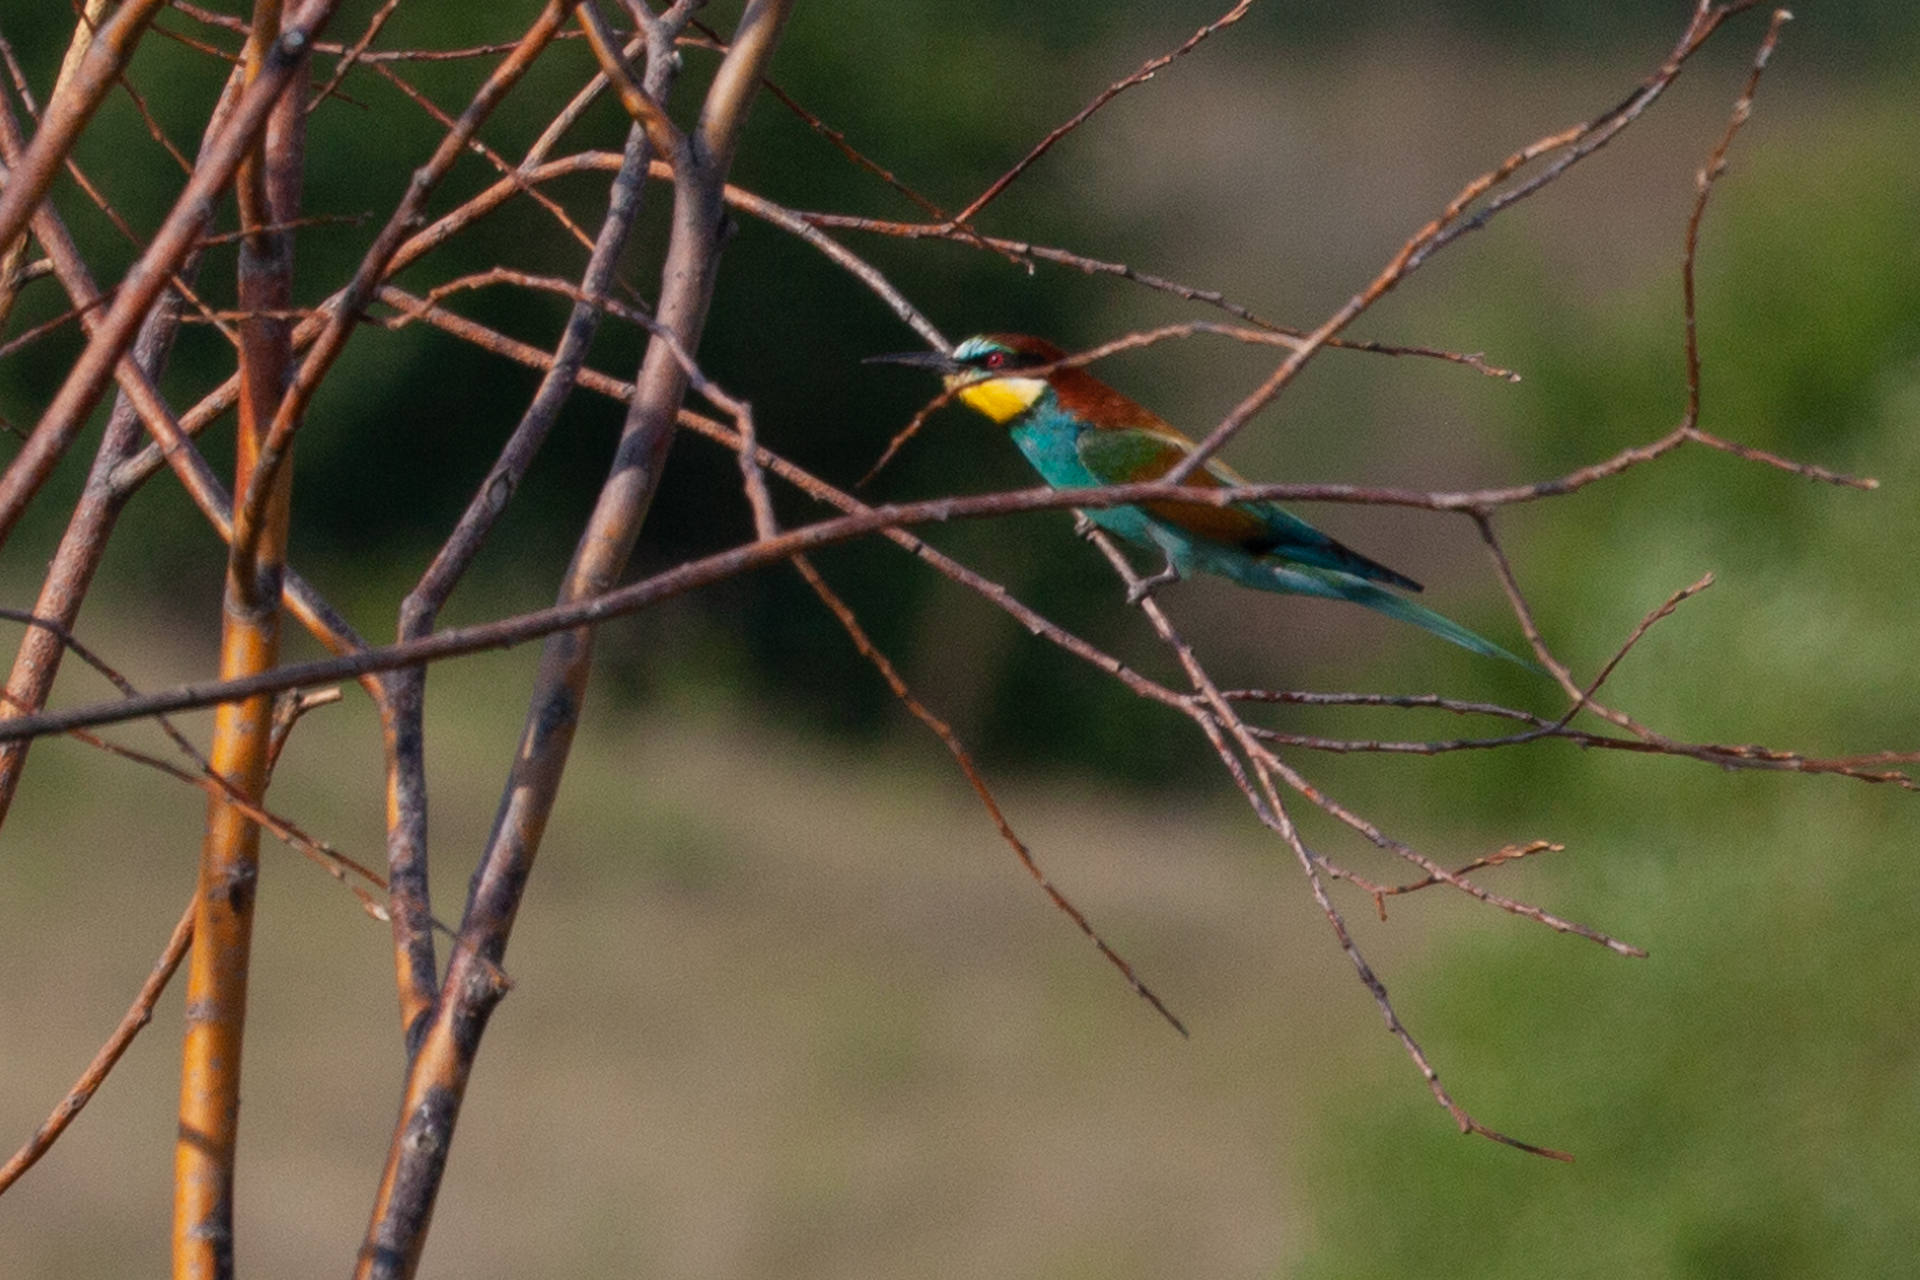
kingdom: Animalia
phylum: Chordata
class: Aves
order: Coraciiformes
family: Meropidae
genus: Merops
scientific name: Merops apiaster
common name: European bee-eater
